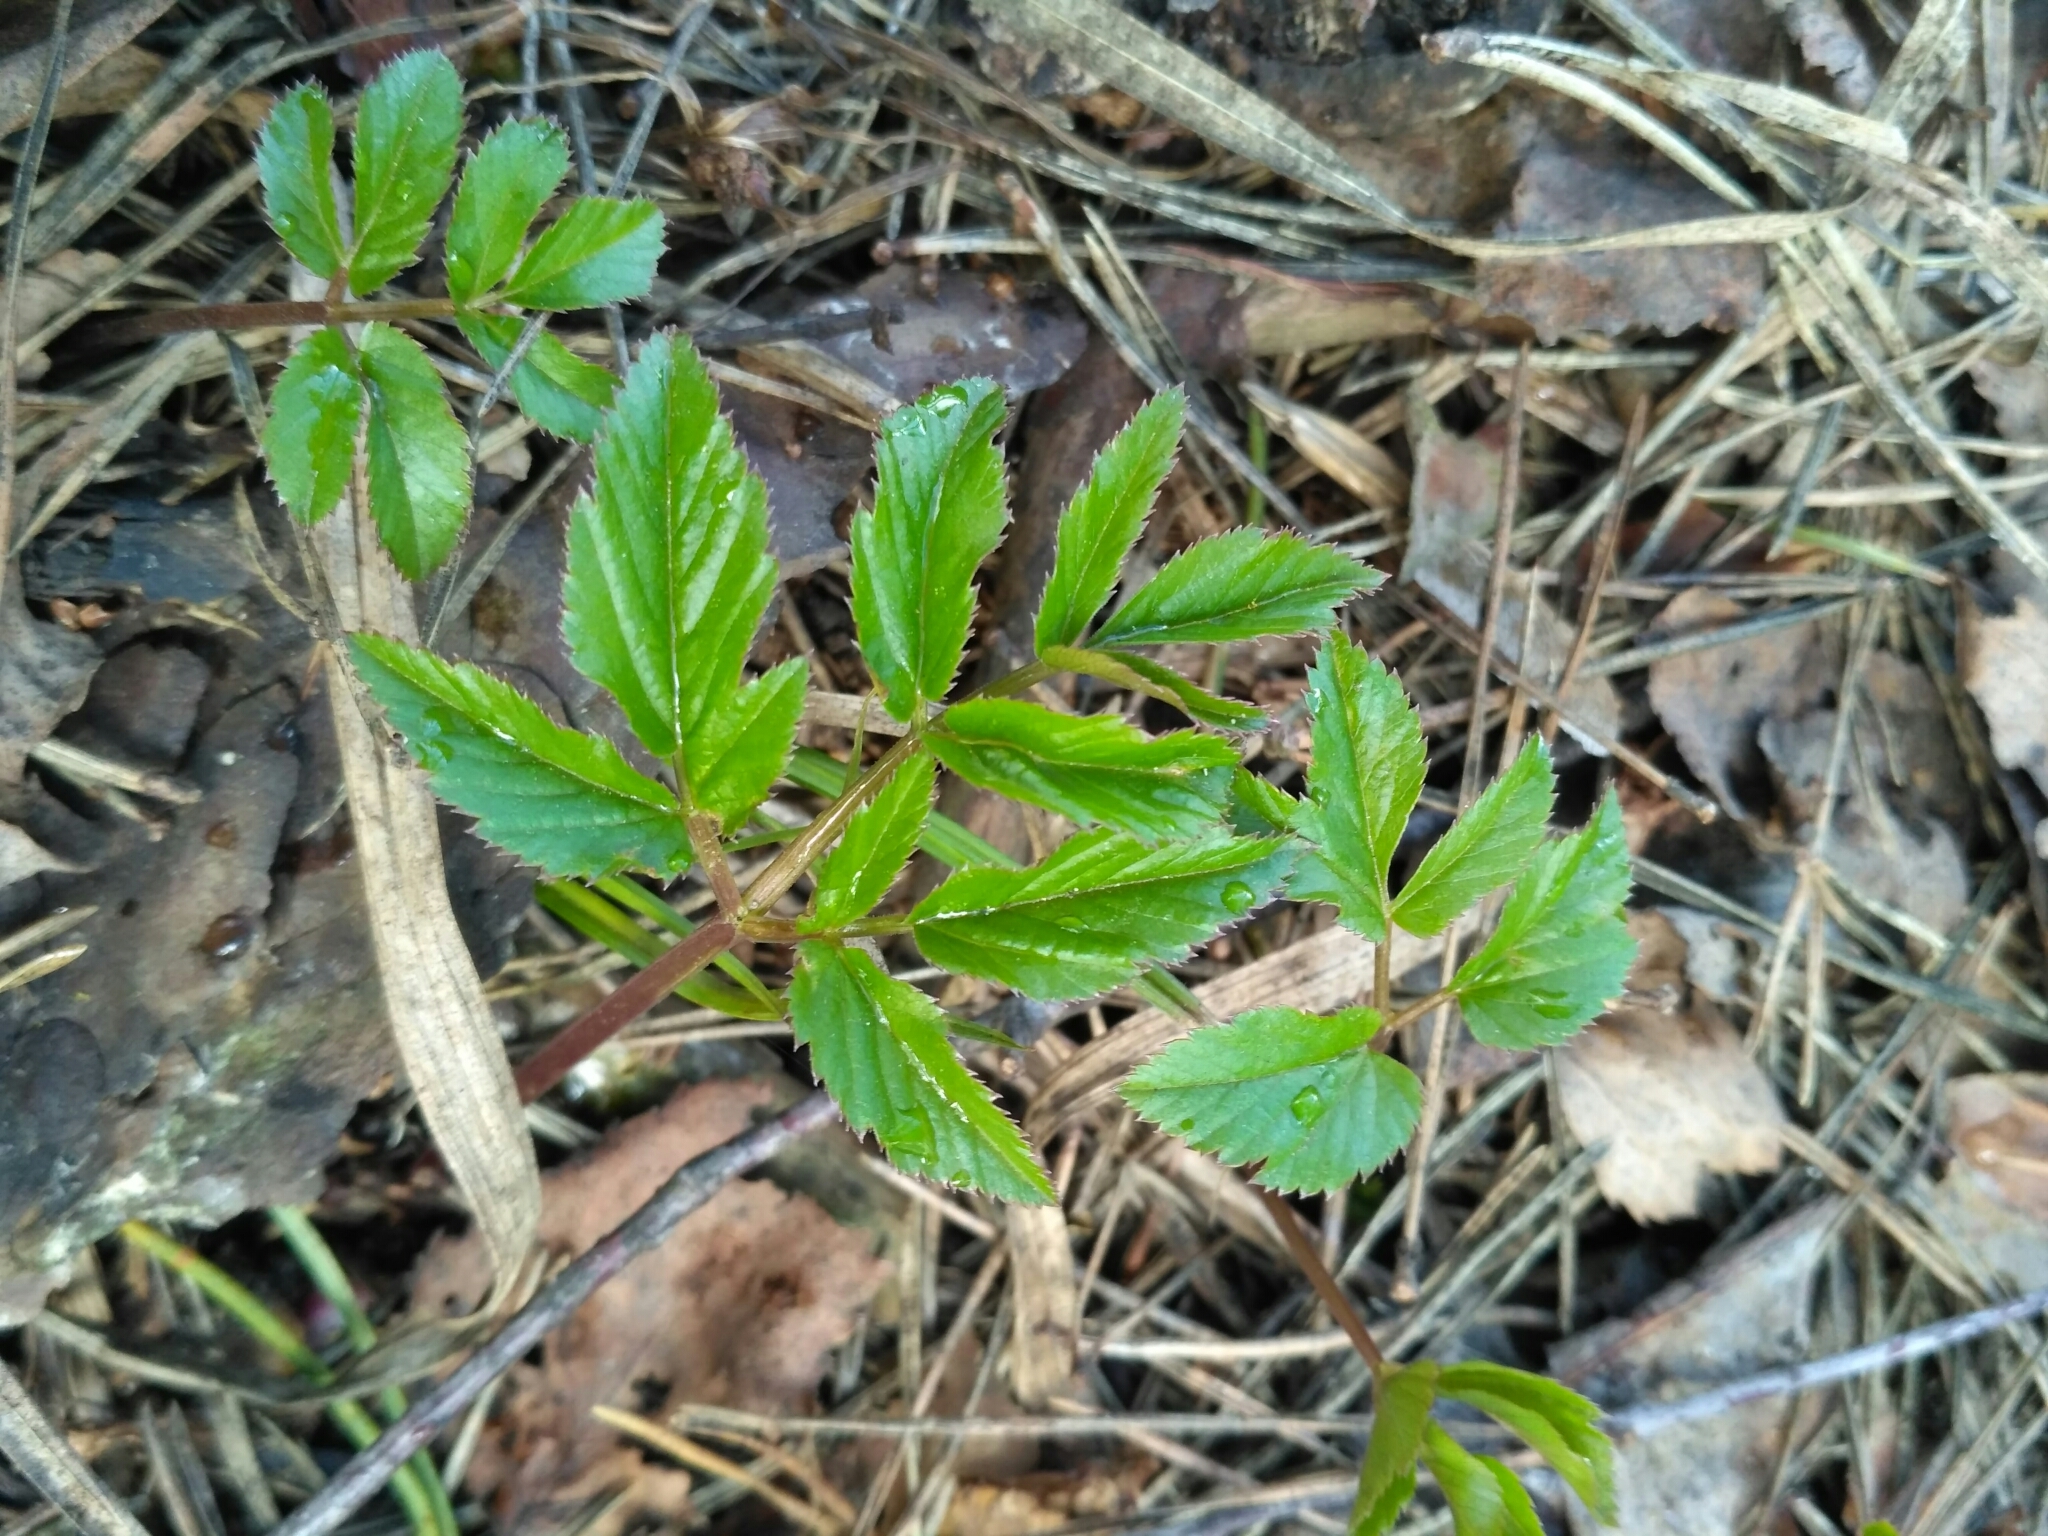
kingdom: Plantae
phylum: Tracheophyta
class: Magnoliopsida
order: Apiales
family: Apiaceae
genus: Aegopodium
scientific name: Aegopodium podagraria
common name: Ground-elder
